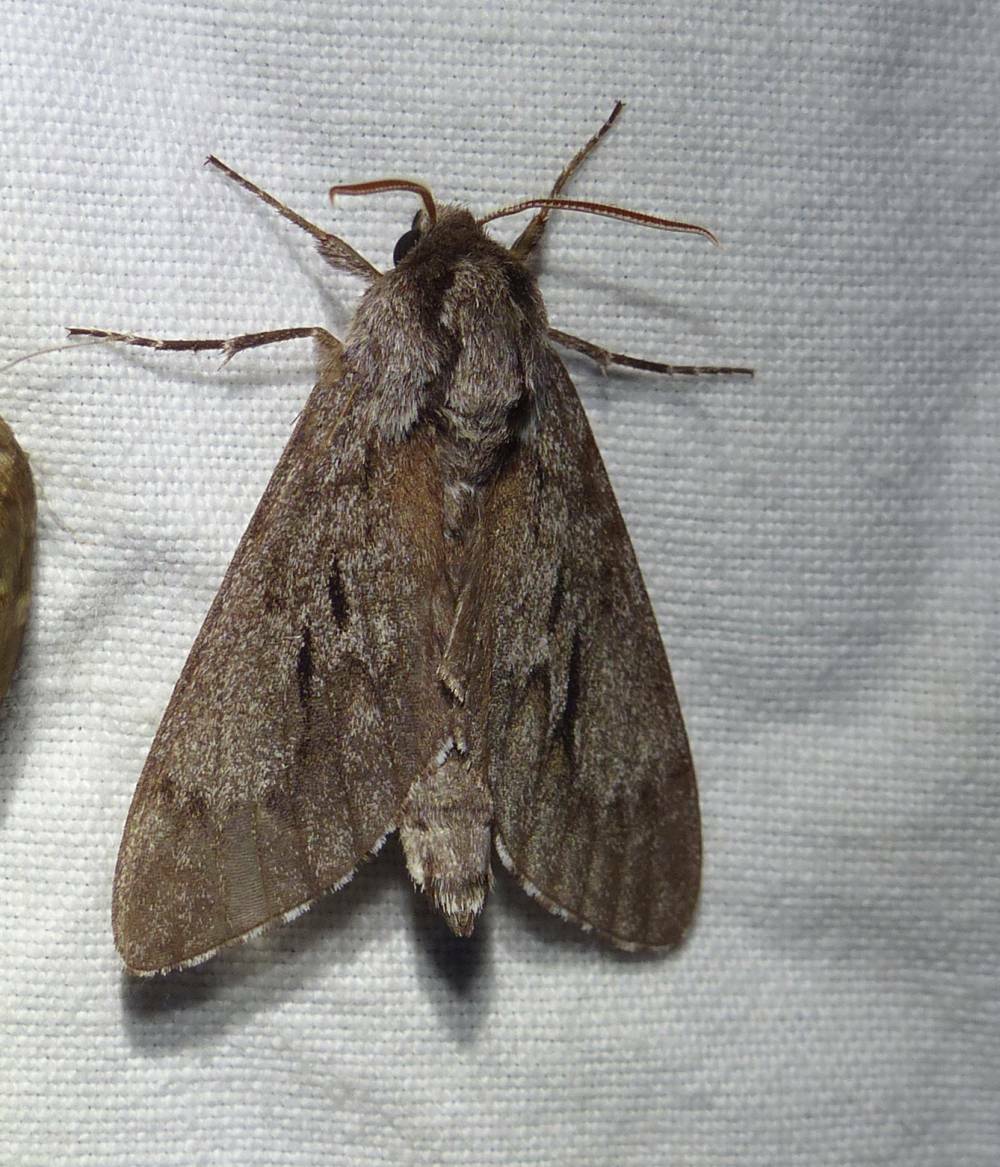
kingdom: Animalia
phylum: Arthropoda
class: Insecta
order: Lepidoptera
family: Sphingidae
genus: Lapara
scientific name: Lapara bombycoides
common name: Northern pine sphinx
